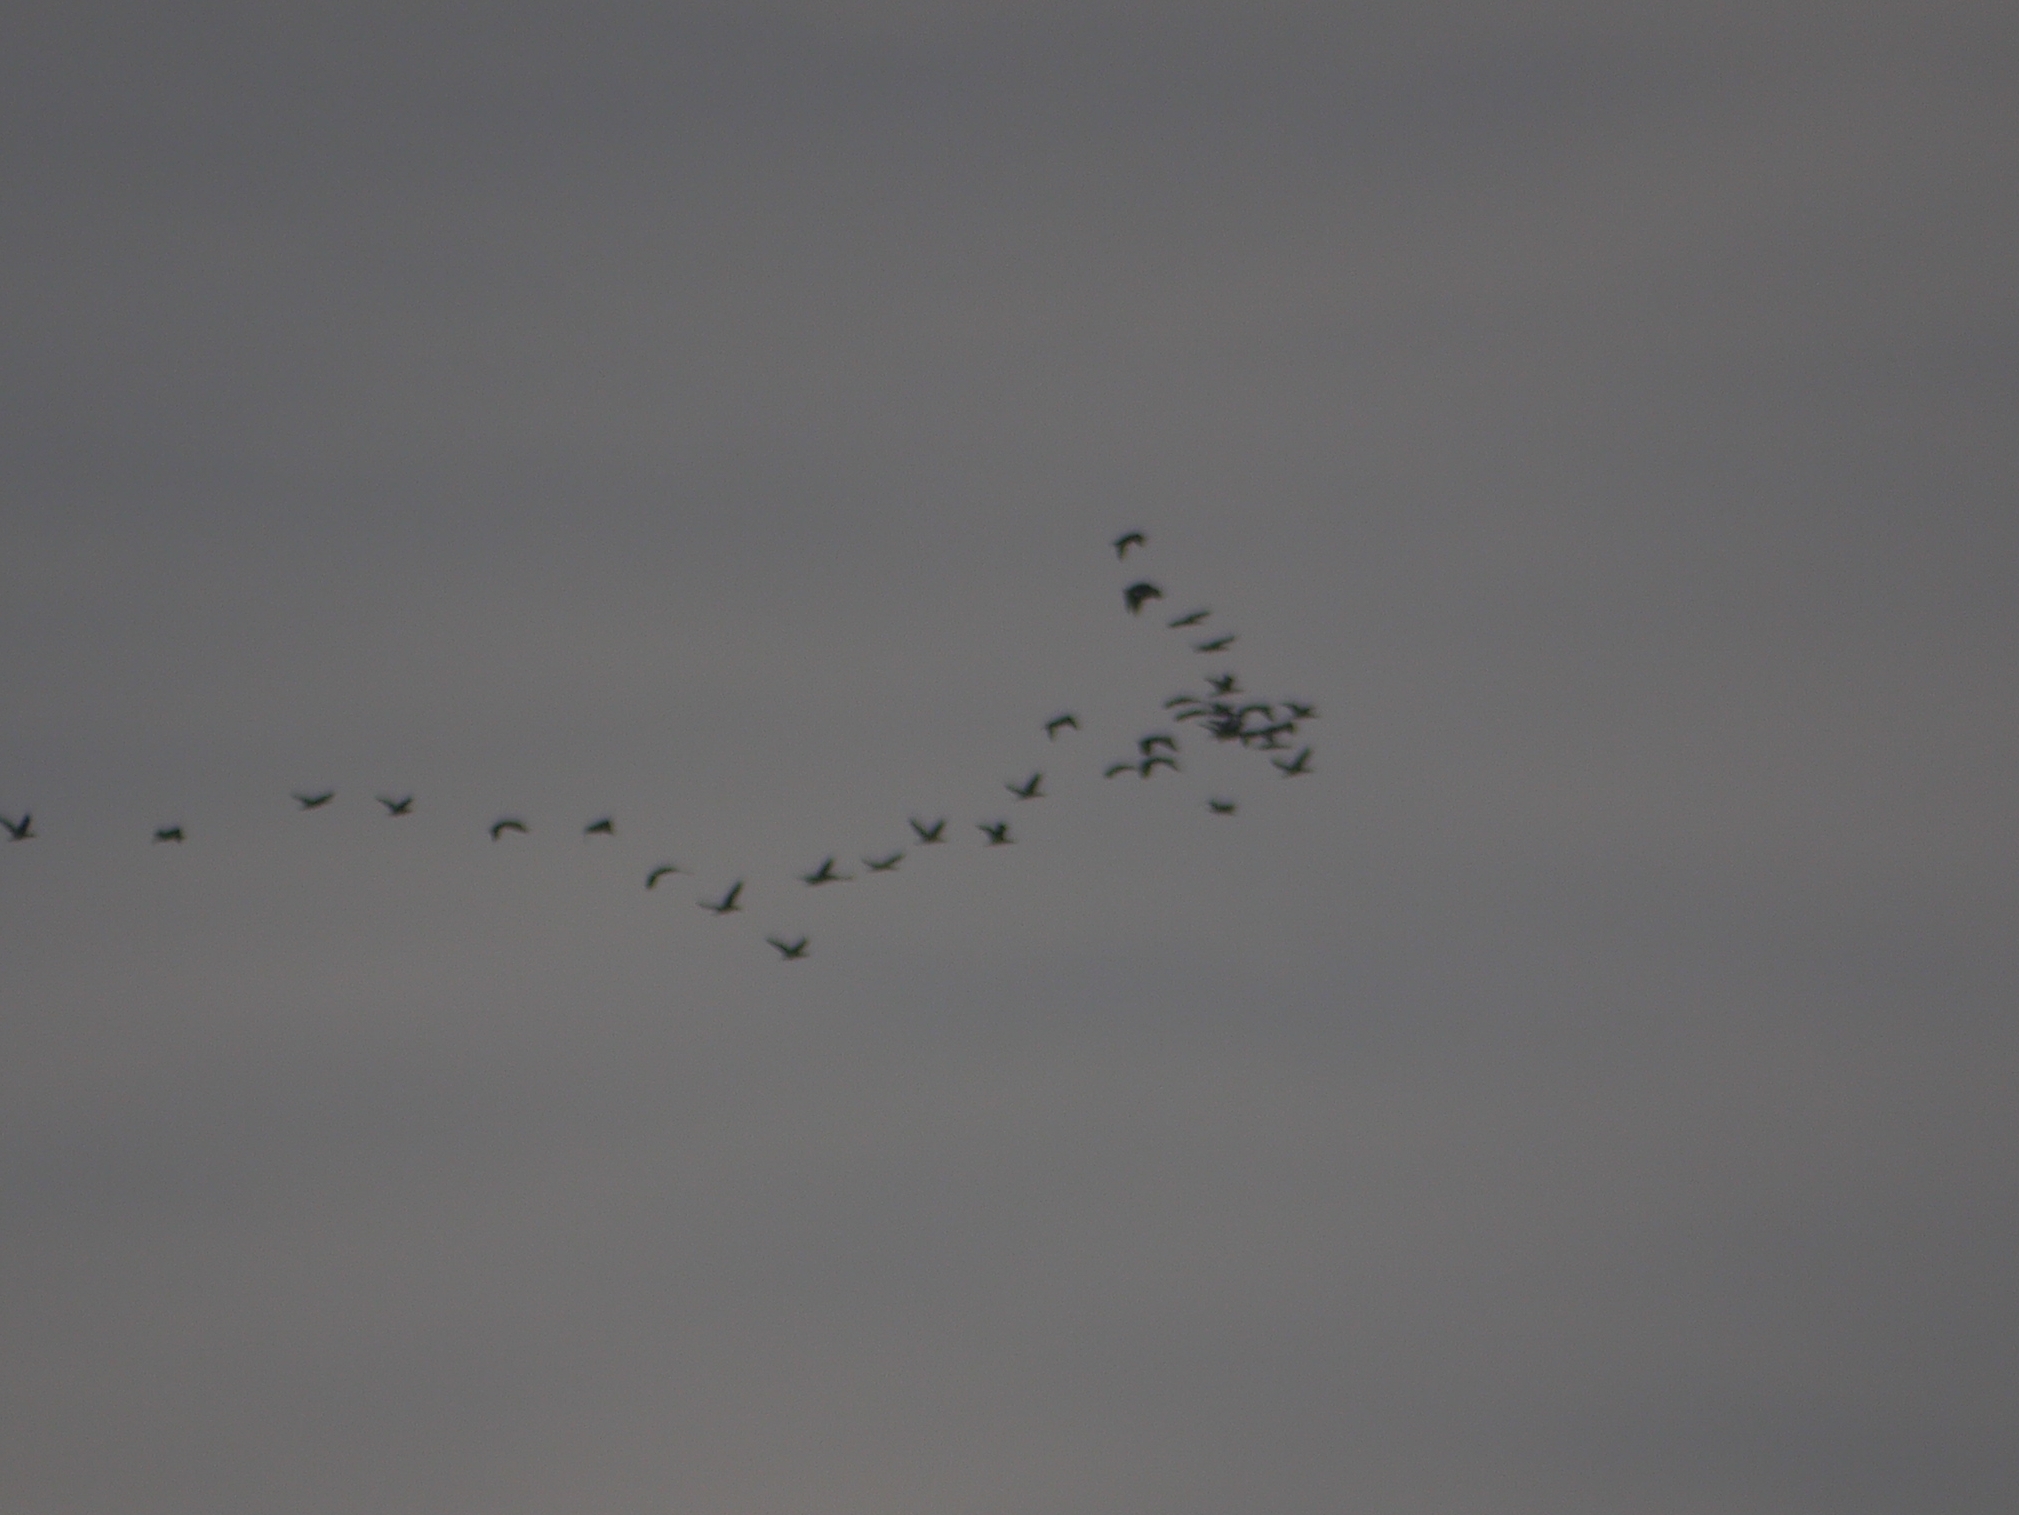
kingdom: Animalia
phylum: Chordata
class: Aves
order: Gruiformes
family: Gruidae
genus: Grus
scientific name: Grus grus
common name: Common crane
